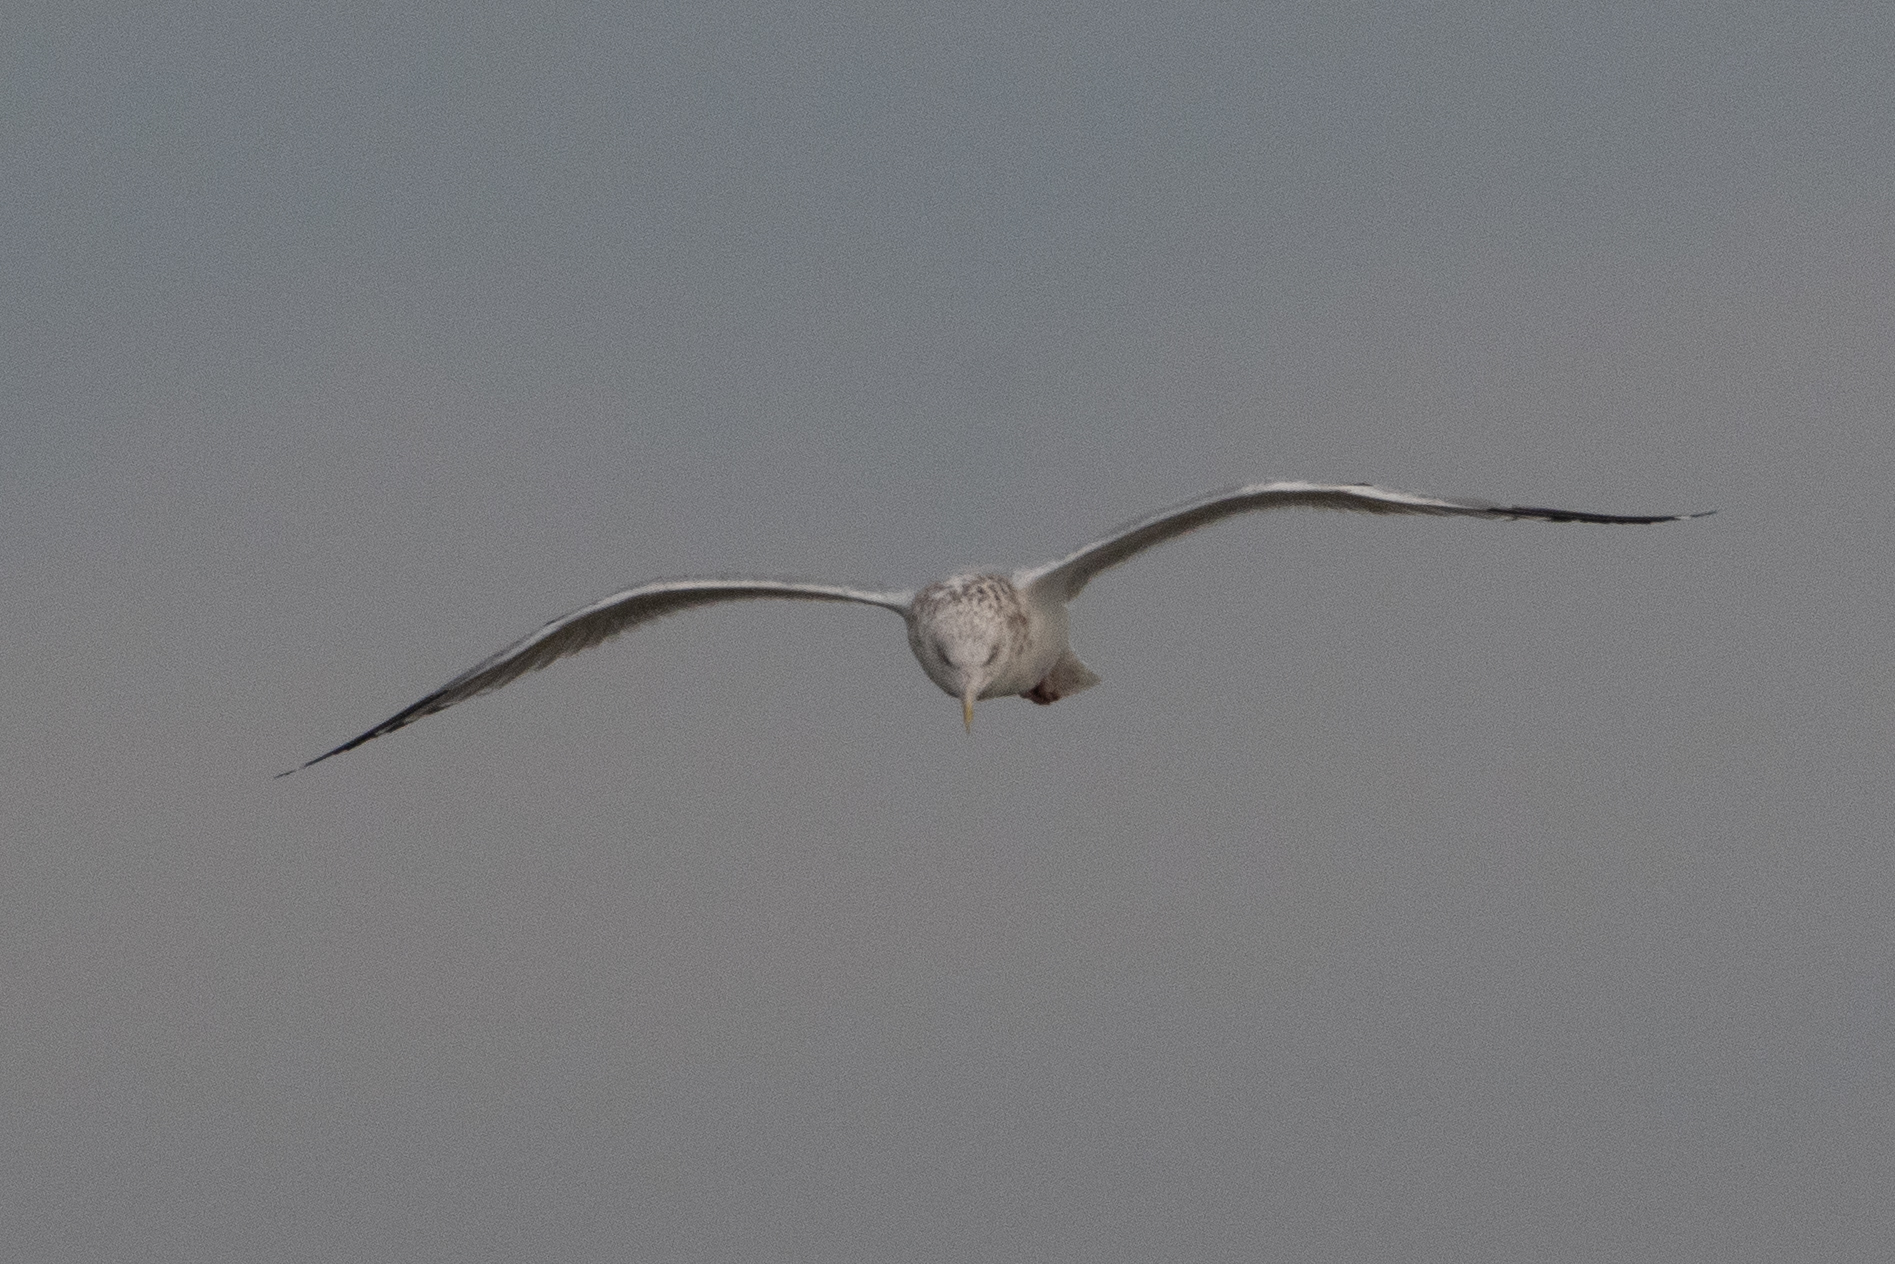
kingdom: Animalia
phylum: Chordata
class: Aves
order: Charadriiformes
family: Laridae
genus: Larus
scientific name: Larus argentatus
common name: Herring gull
